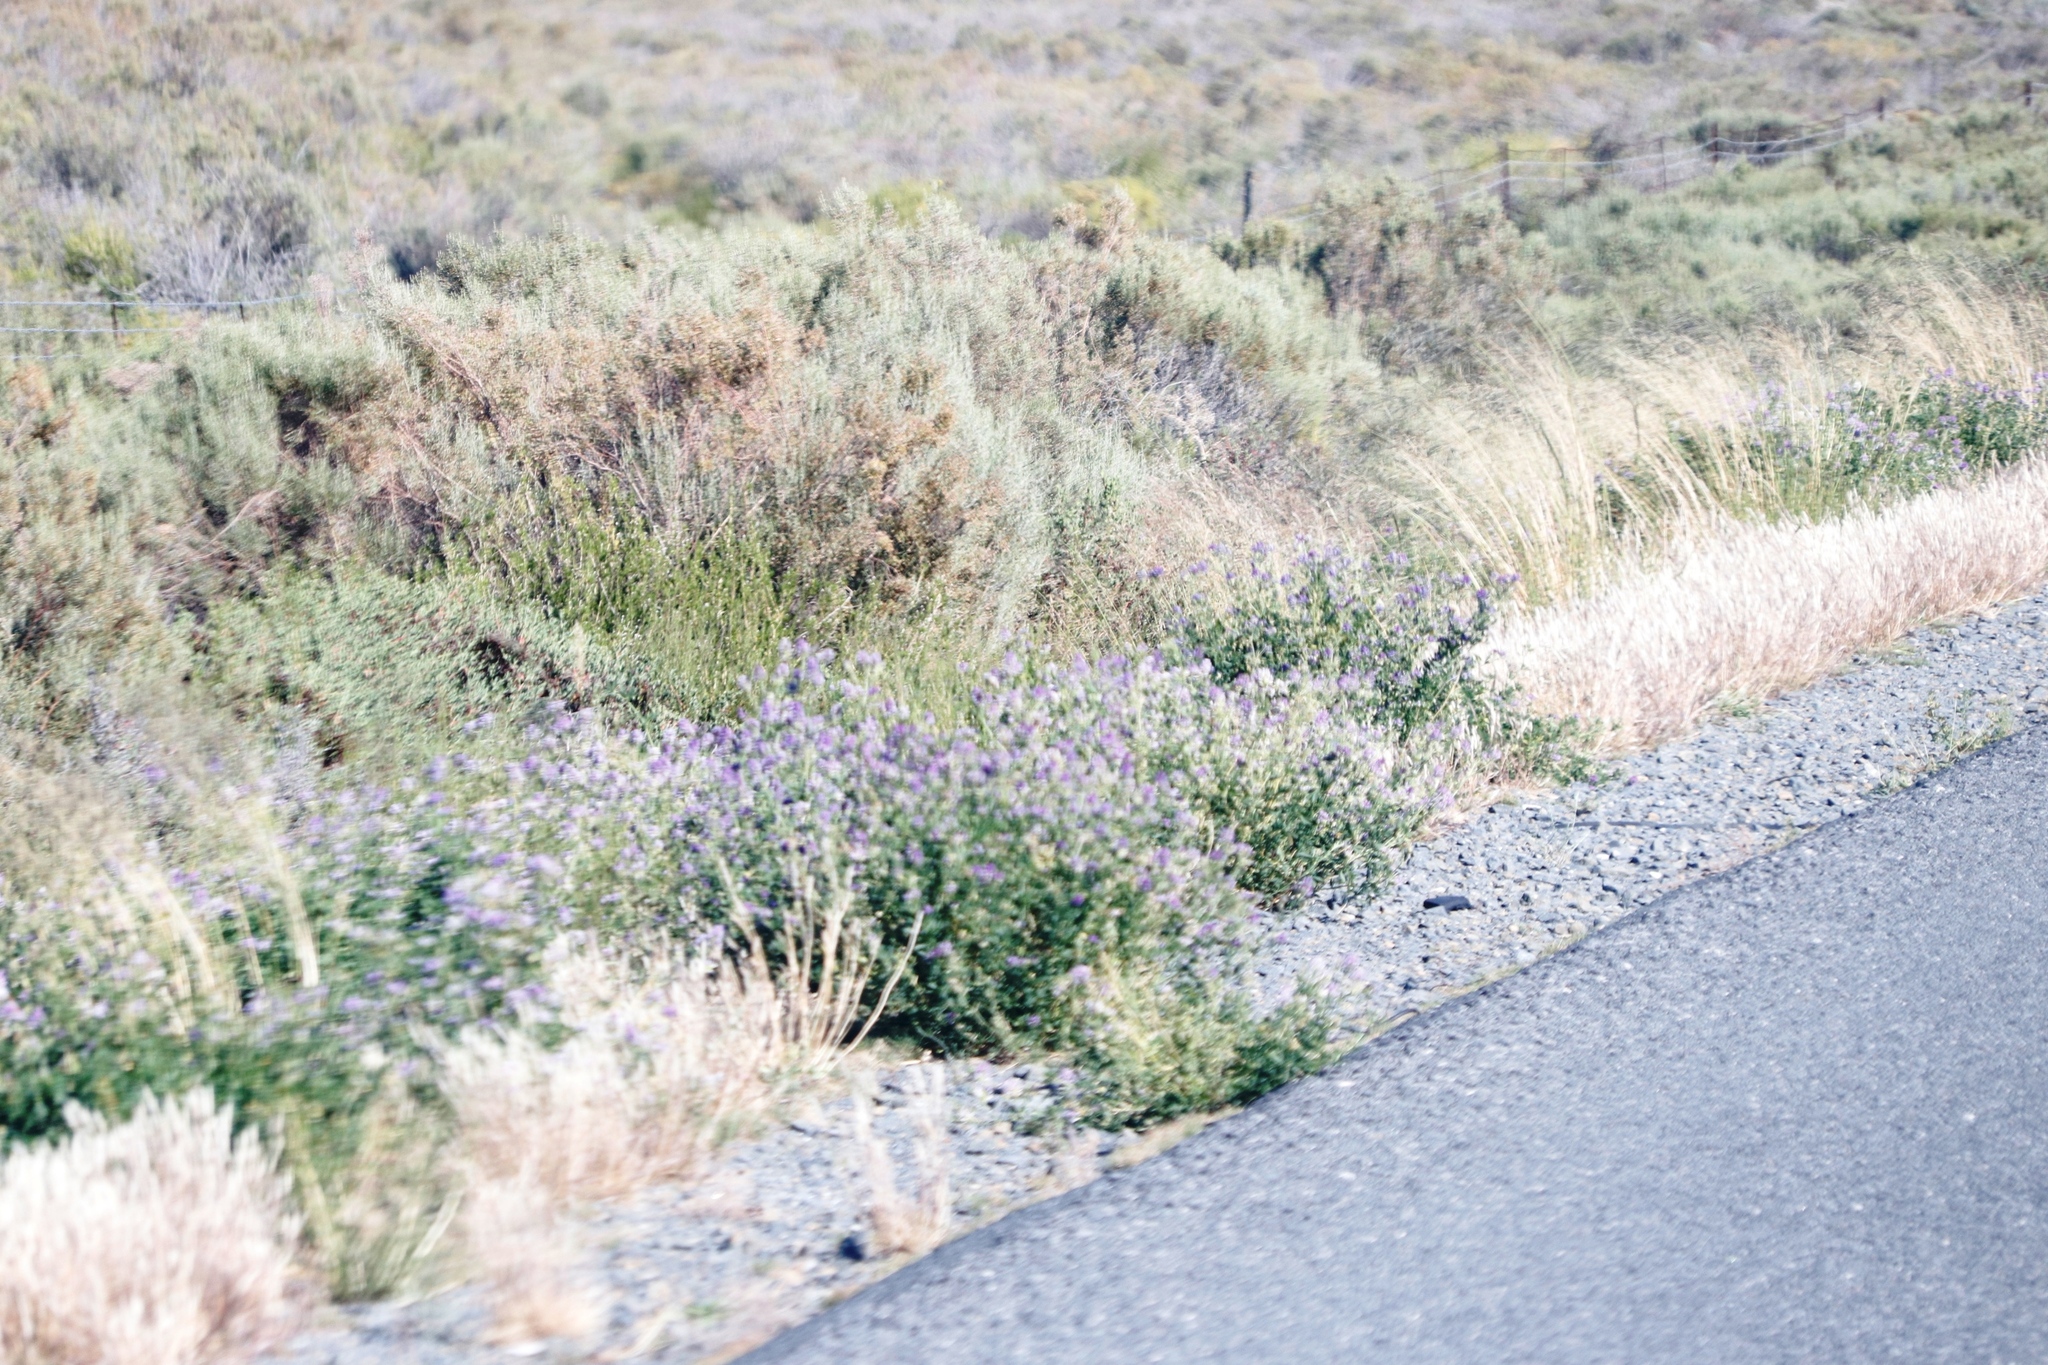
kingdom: Plantae
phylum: Tracheophyta
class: Magnoliopsida
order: Fabales
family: Fabaceae
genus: Medicago
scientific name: Medicago sativa
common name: Alfalfa
